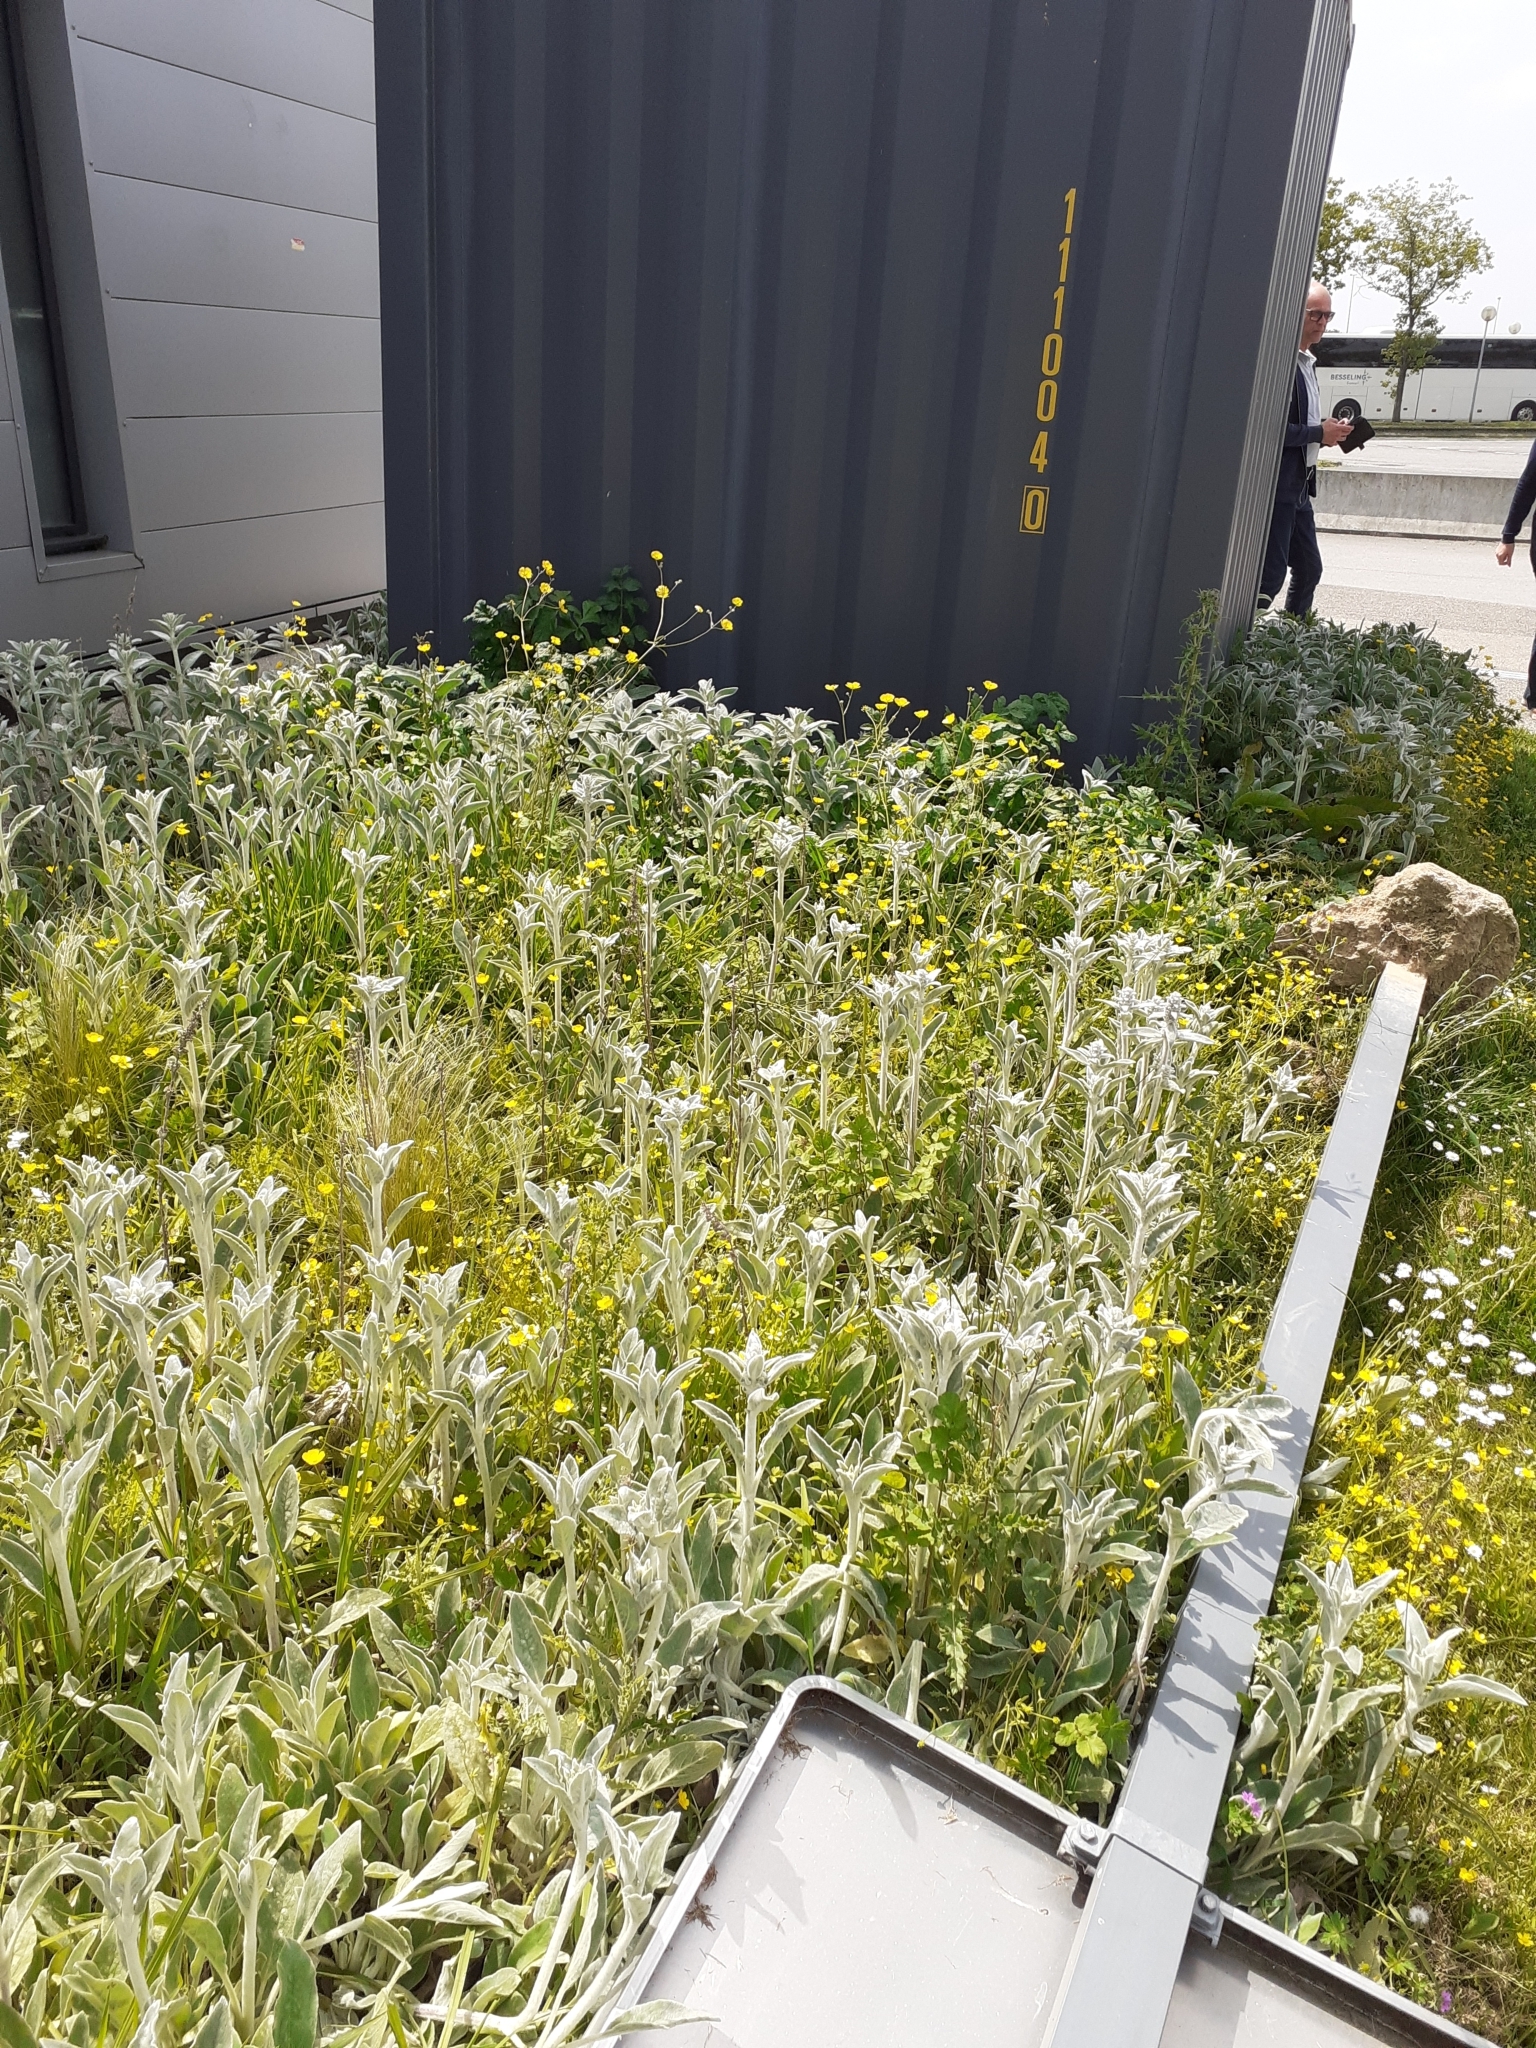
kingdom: Plantae
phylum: Tracheophyta
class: Magnoliopsida
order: Lamiales
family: Lamiaceae
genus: Stachys
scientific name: Stachys byzantina
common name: Lamb's-ear
